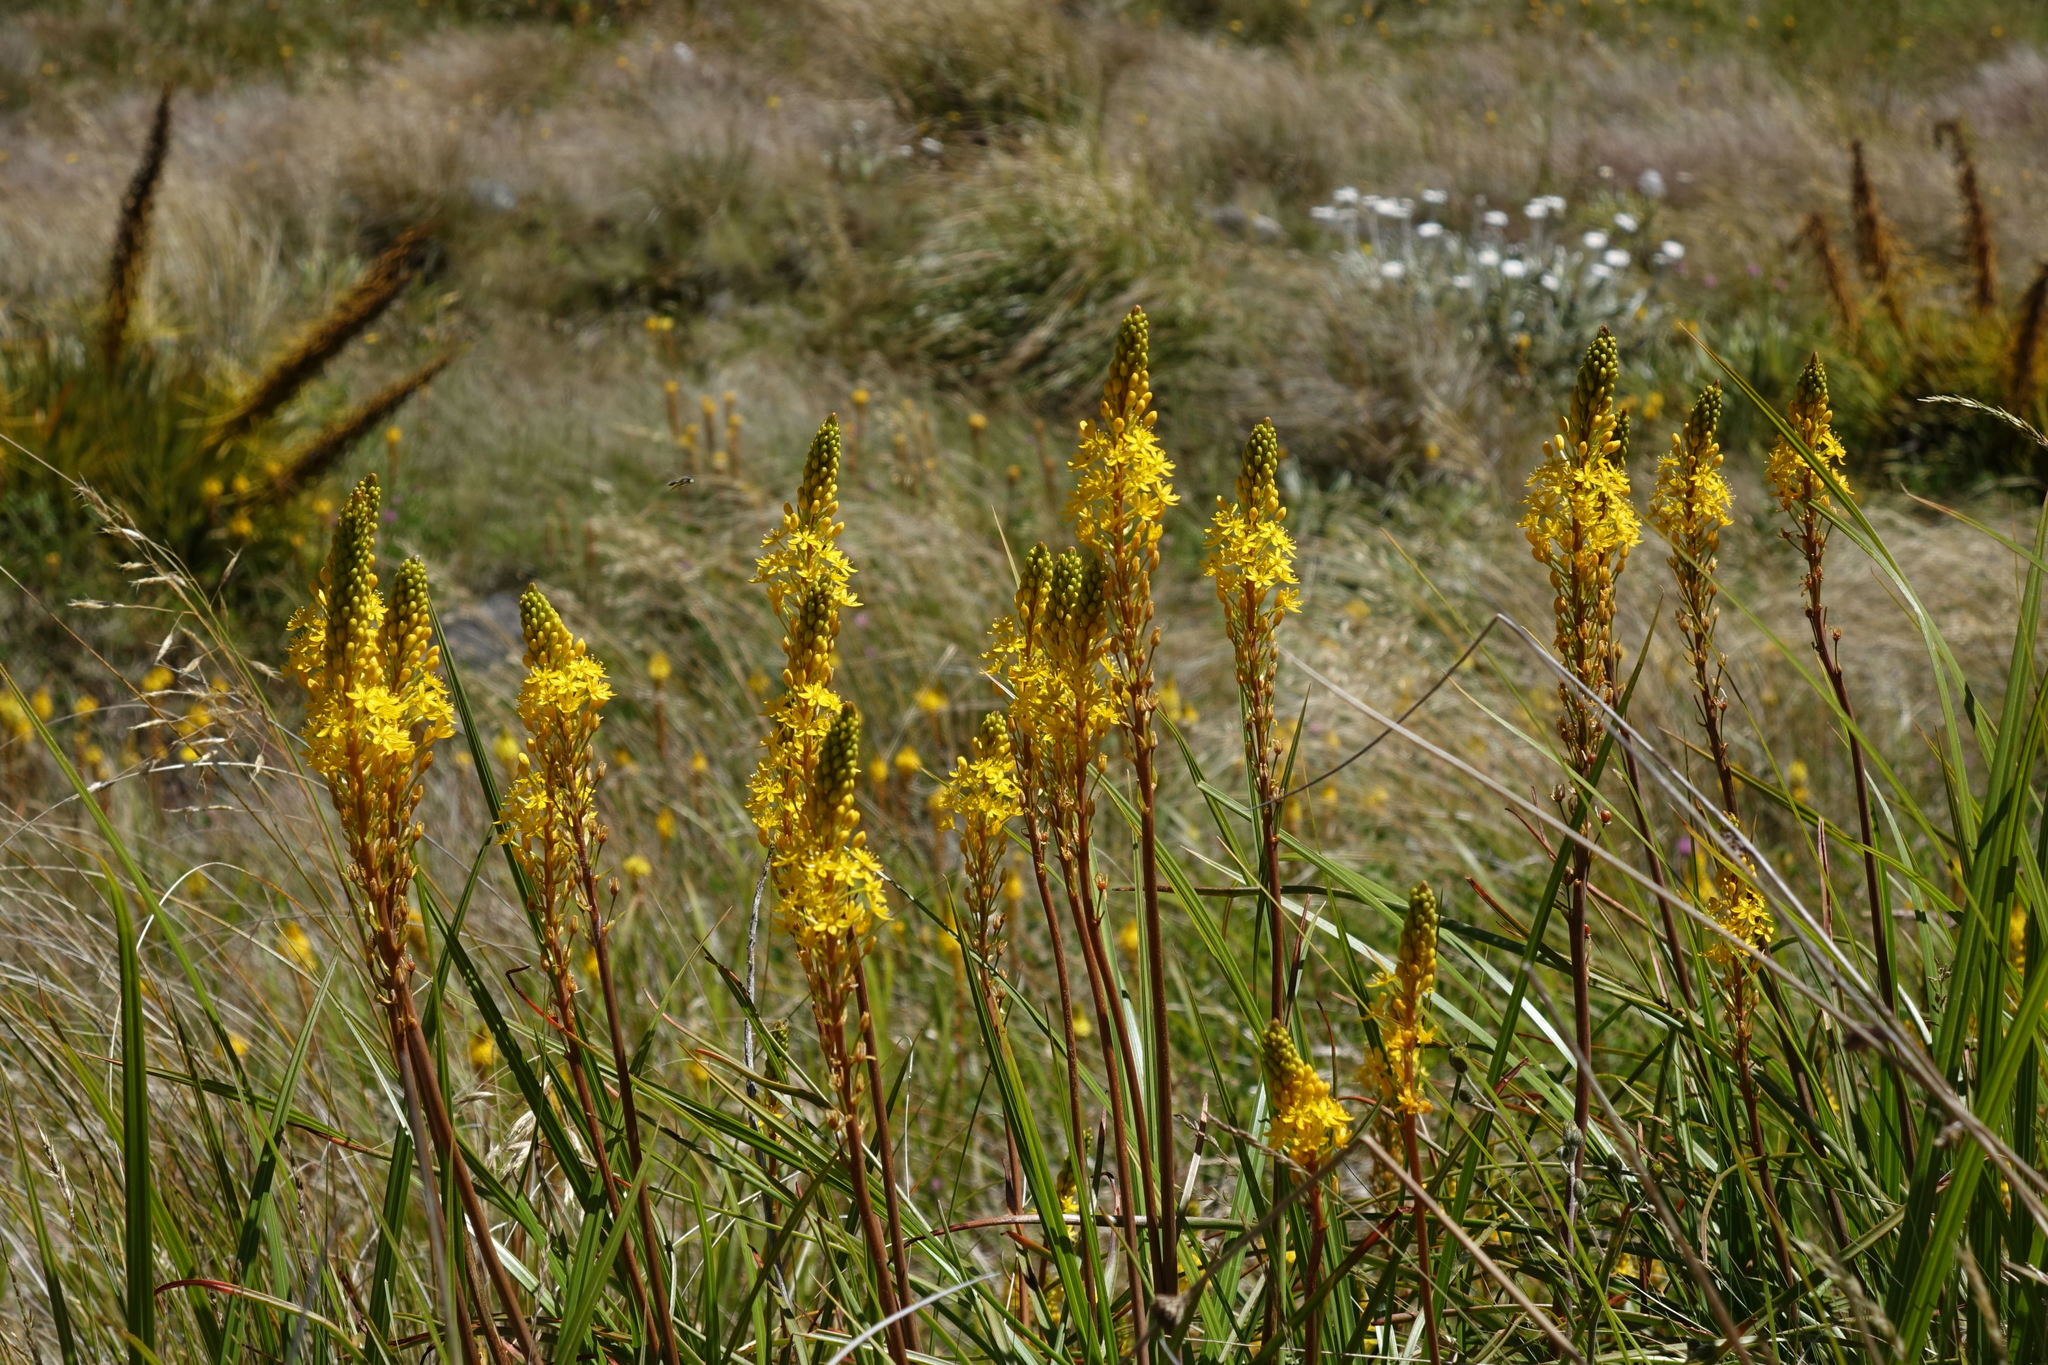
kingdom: Plantae
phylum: Tracheophyta
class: Liliopsida
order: Asparagales
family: Asphodelaceae
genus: Bulbinella
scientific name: Bulbinella angustifolia
